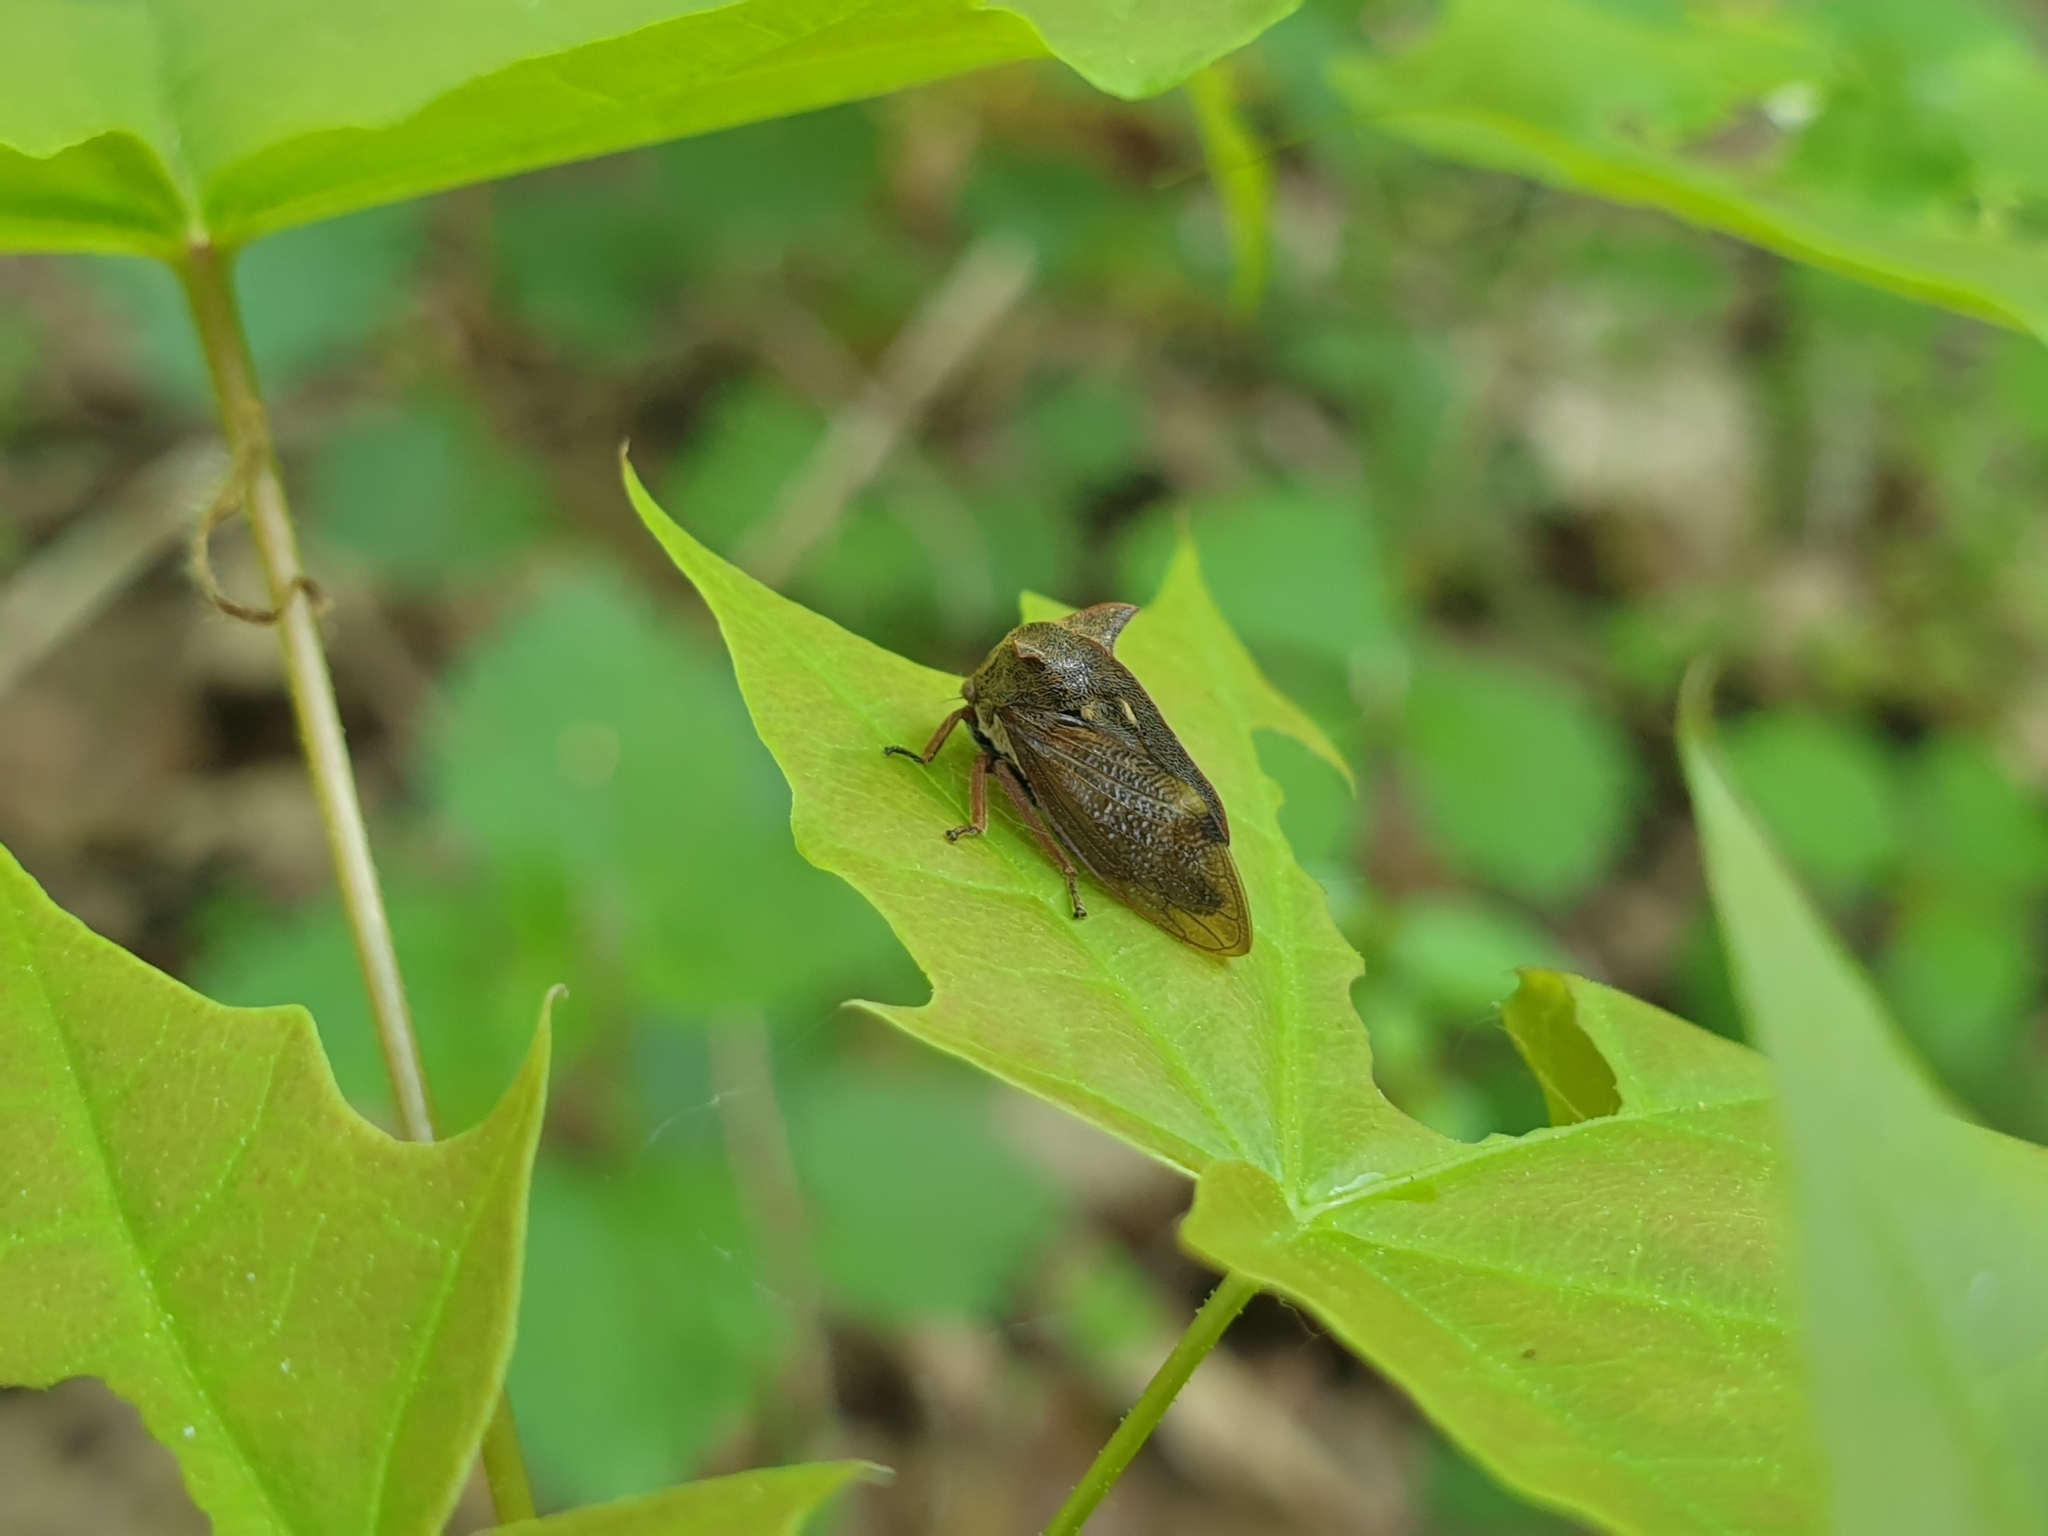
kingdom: Animalia
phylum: Arthropoda
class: Insecta
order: Hemiptera
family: Membracidae
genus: Centrotus
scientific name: Centrotus cornuta
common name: Treehopper
